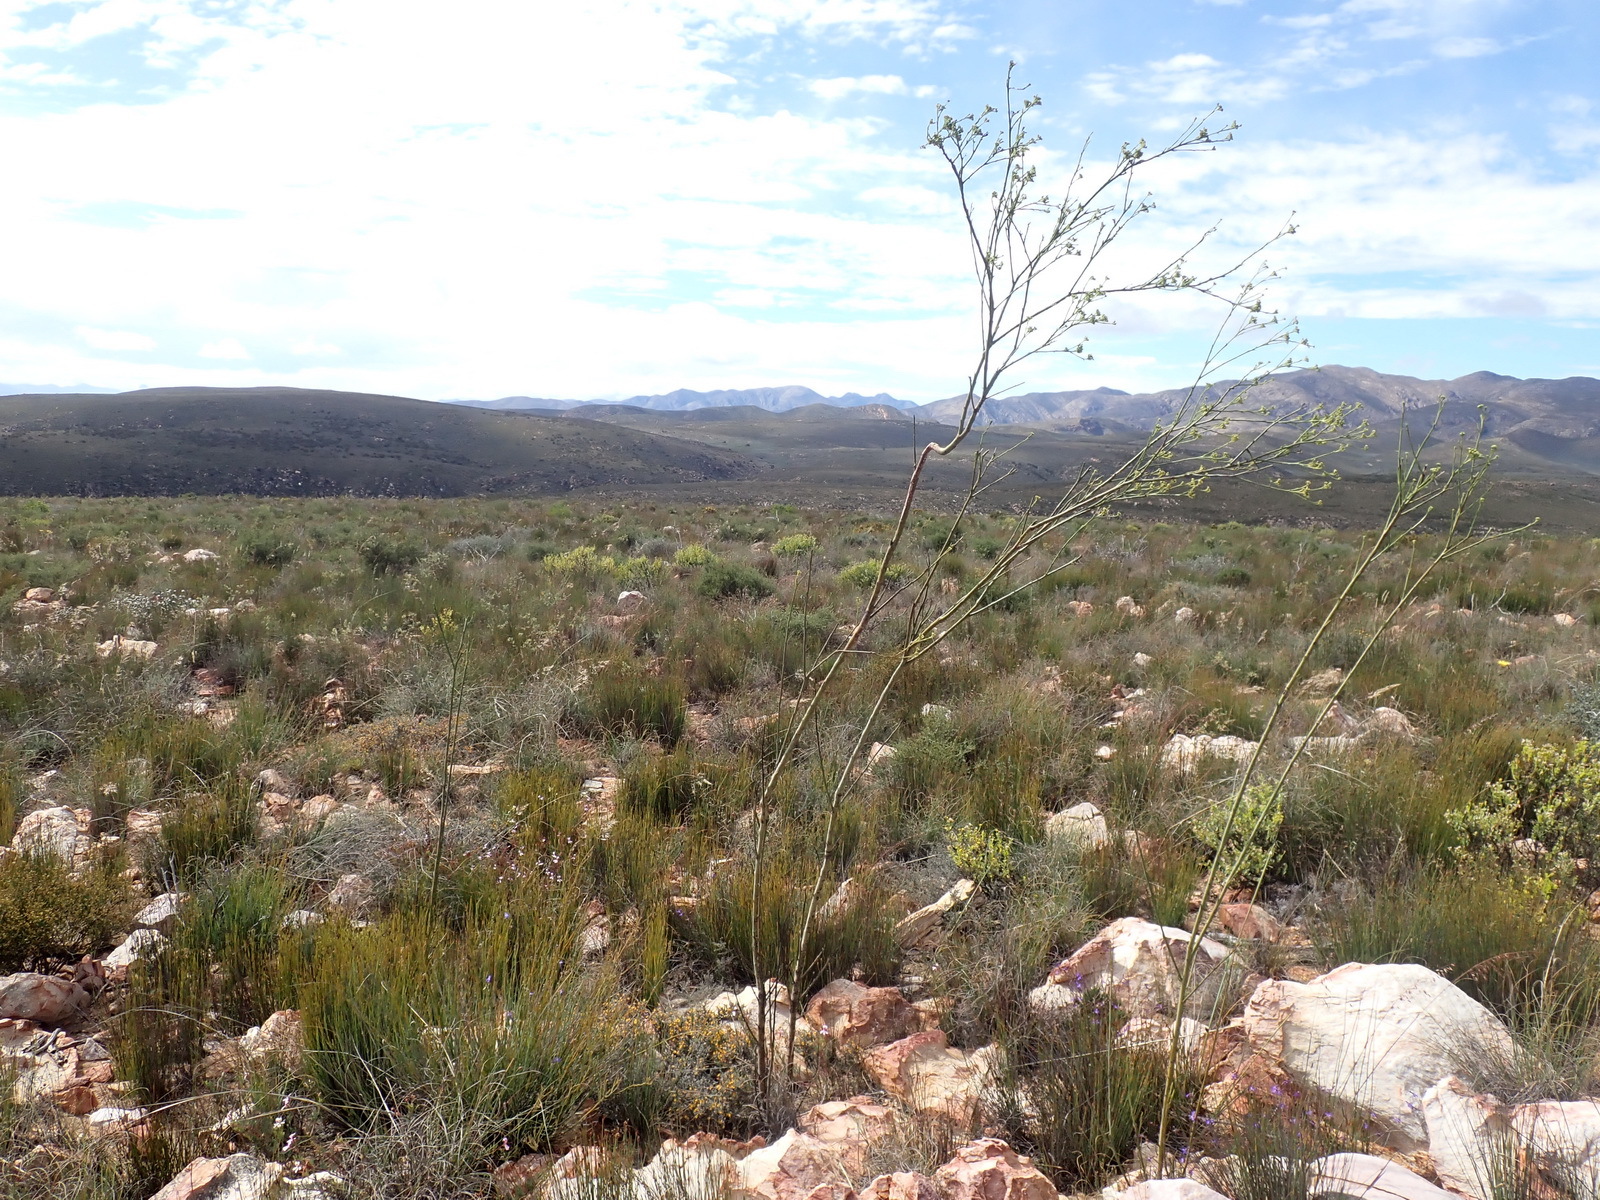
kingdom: Plantae
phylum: Tracheophyta
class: Magnoliopsida
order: Santalales
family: Thesiaceae
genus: Thesium
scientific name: Thesium strictum
